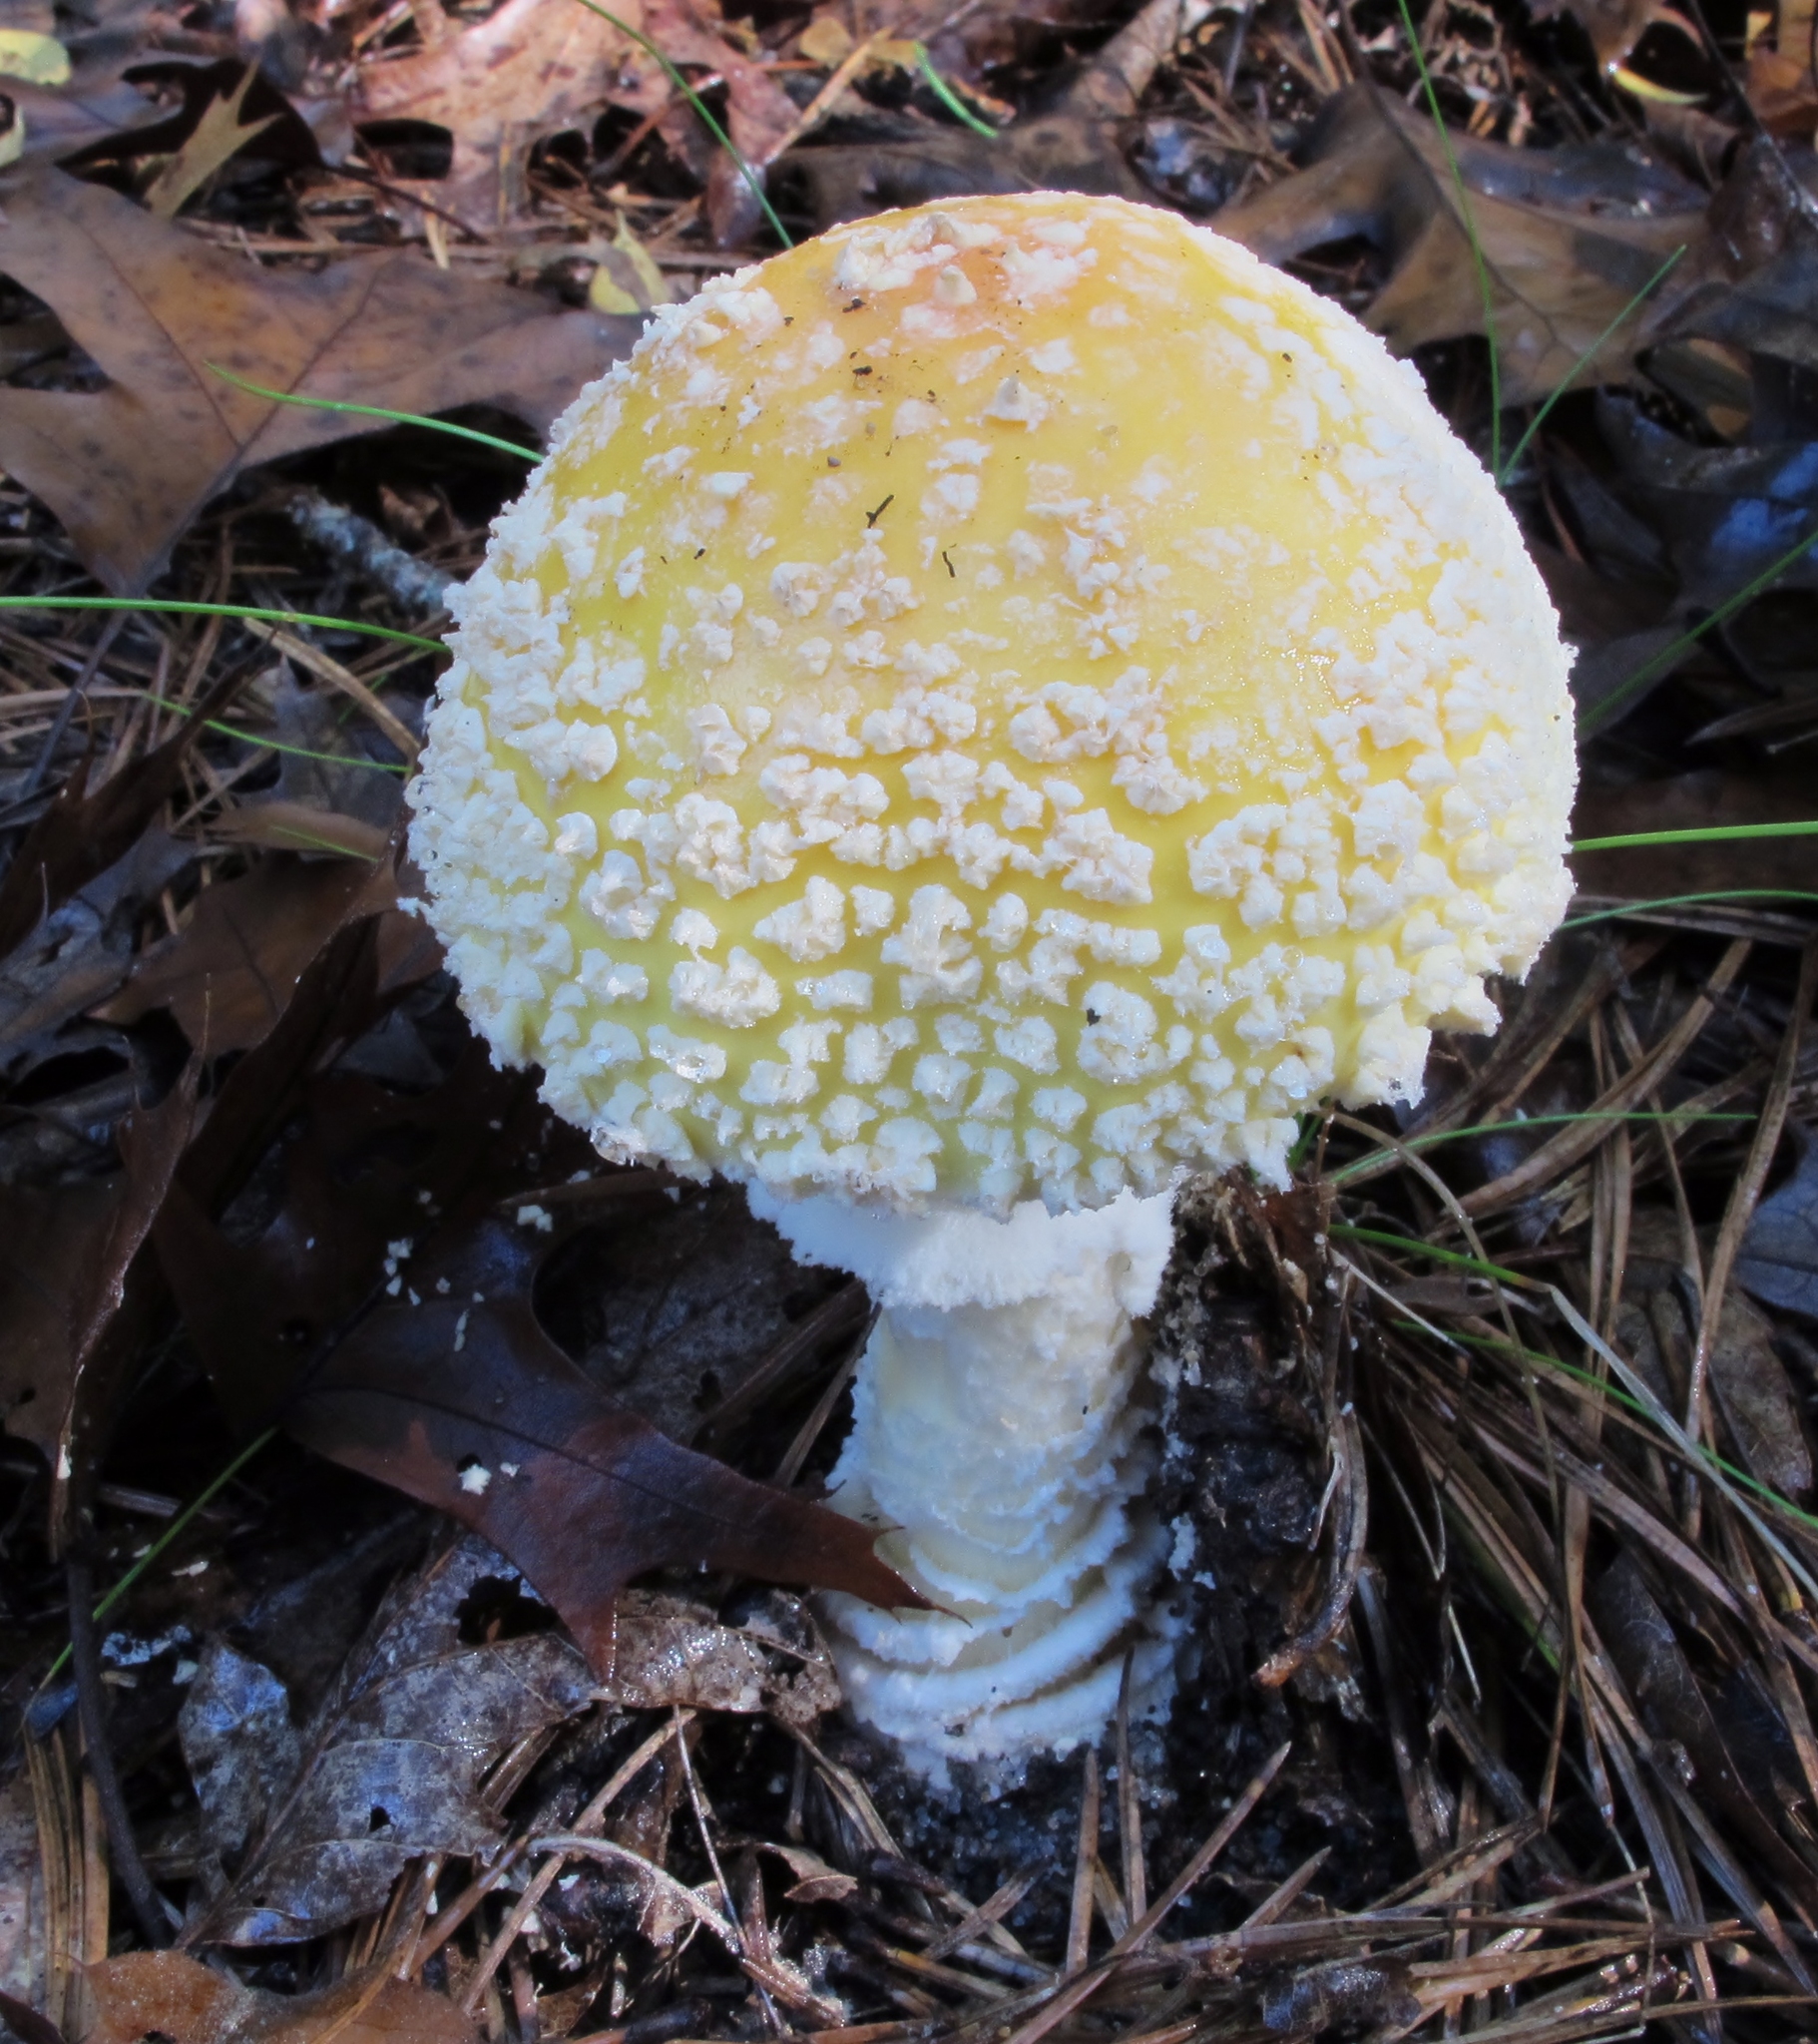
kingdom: Fungi
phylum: Basidiomycota
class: Agaricomycetes
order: Agaricales
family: Amanitaceae
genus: Amanita
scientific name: Amanita muscaria
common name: Fly agaric
